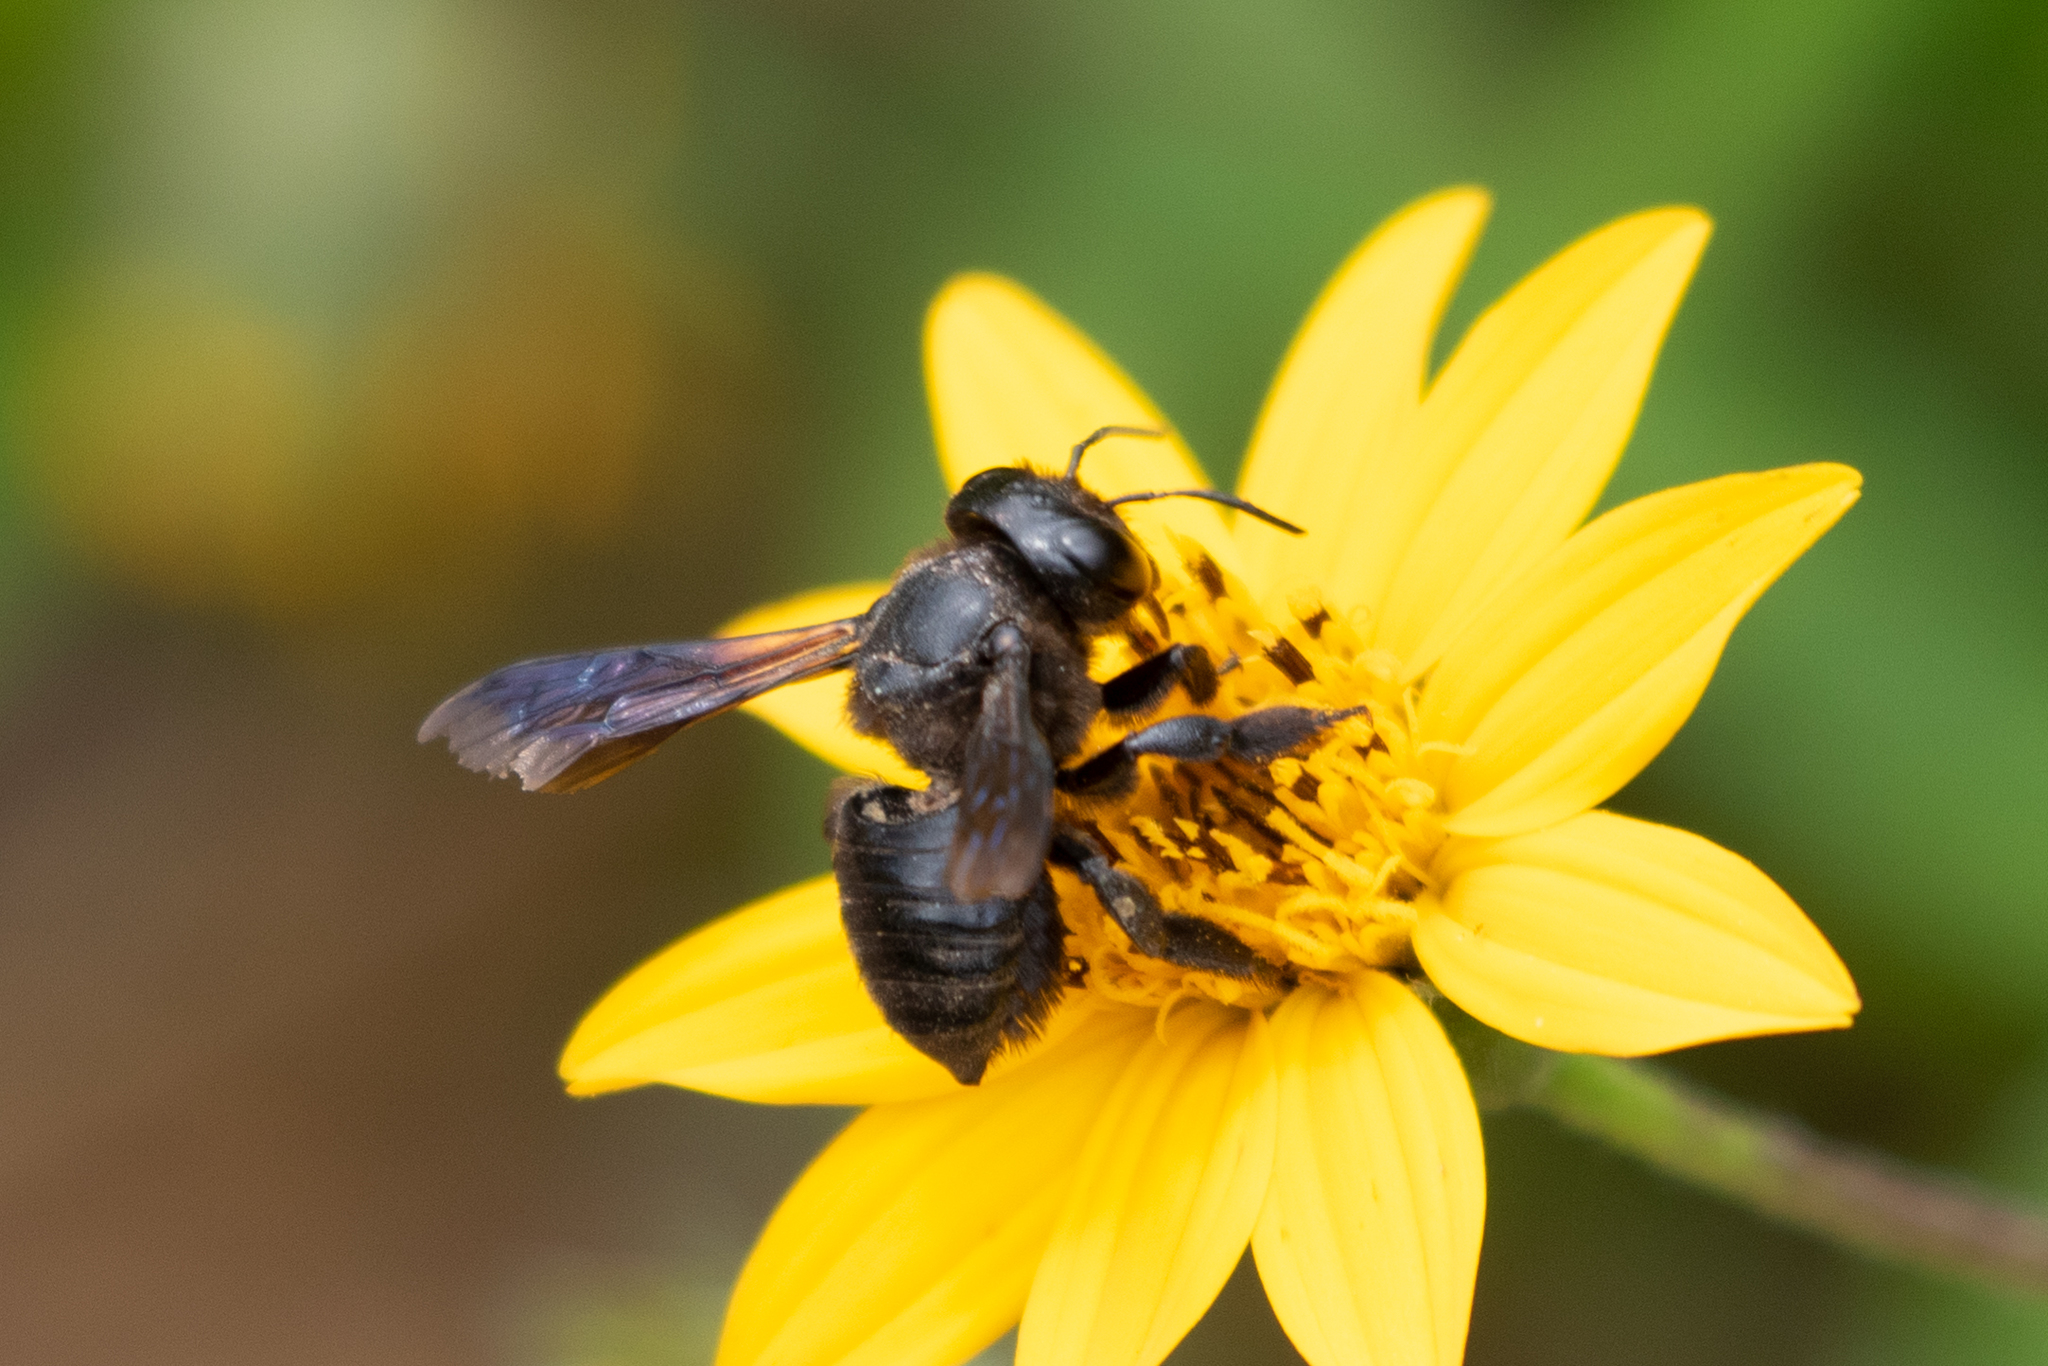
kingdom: Animalia
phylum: Arthropoda
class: Insecta
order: Hymenoptera
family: Megachilidae
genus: Megachile
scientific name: Megachile xylocopoides
